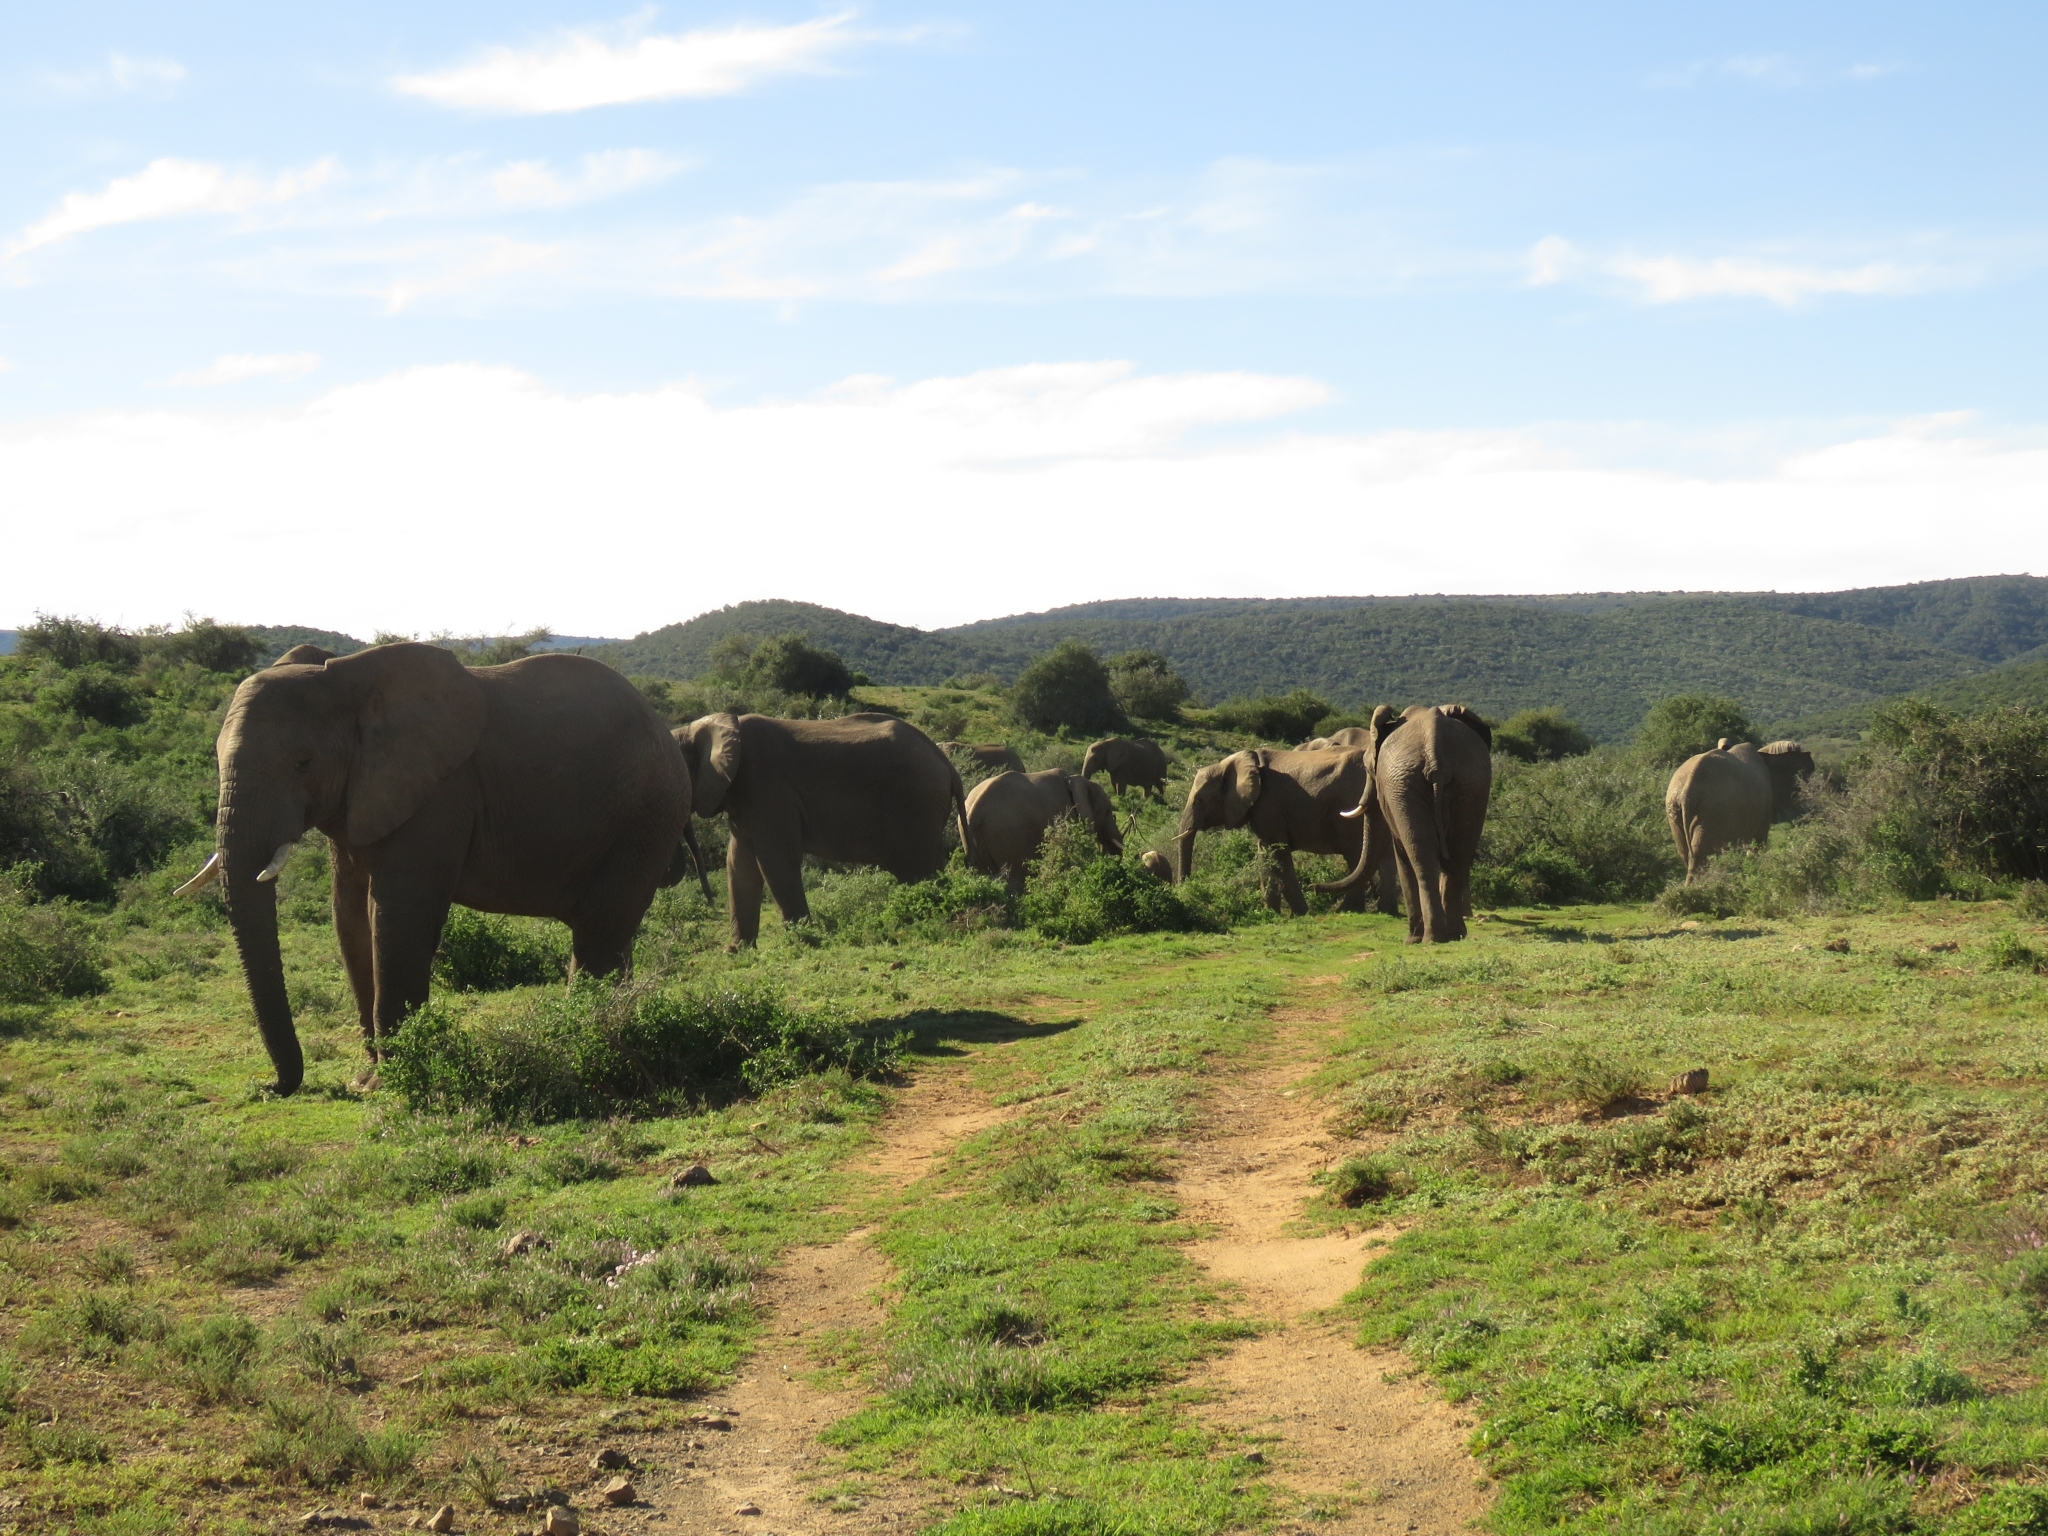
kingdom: Animalia
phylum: Chordata
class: Mammalia
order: Proboscidea
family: Elephantidae
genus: Loxodonta
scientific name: Loxodonta africana
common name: African elephant
